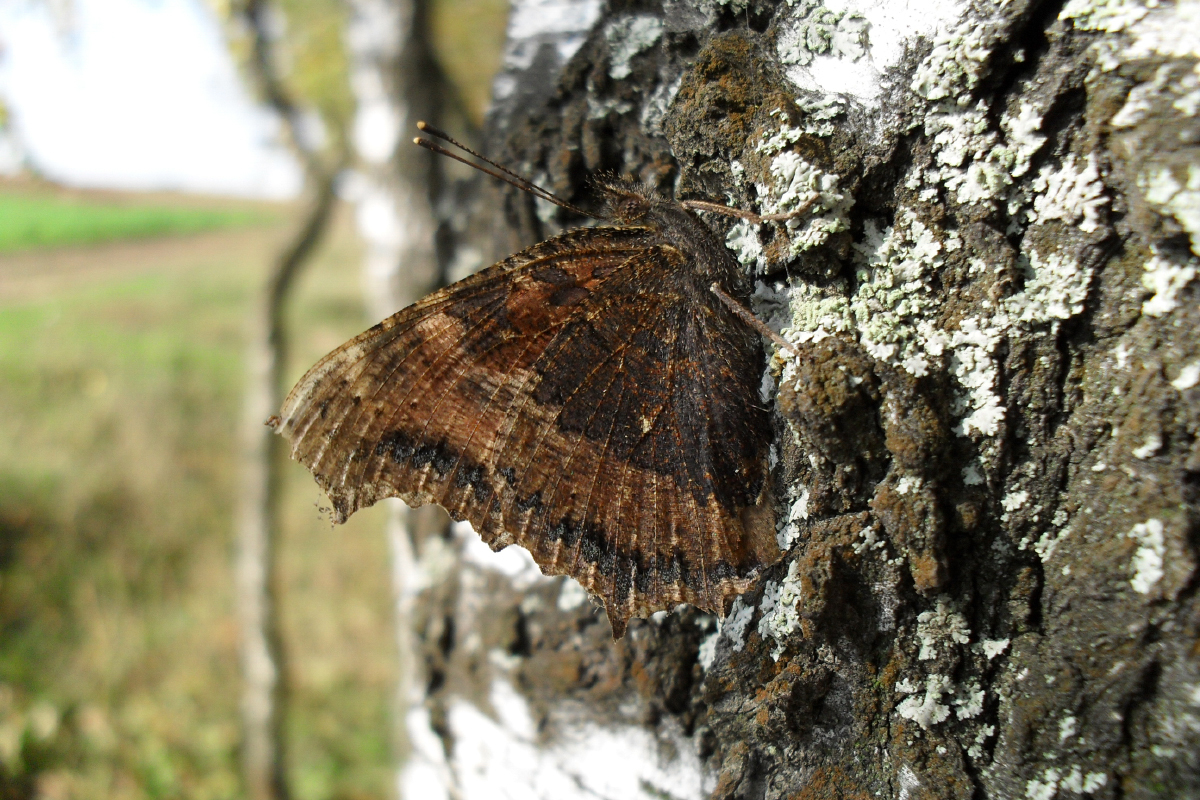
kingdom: Animalia
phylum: Arthropoda
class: Insecta
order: Lepidoptera
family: Nymphalidae
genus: Nymphalis
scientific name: Nymphalis xanthomelas
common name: Scarce tortoiseshell
